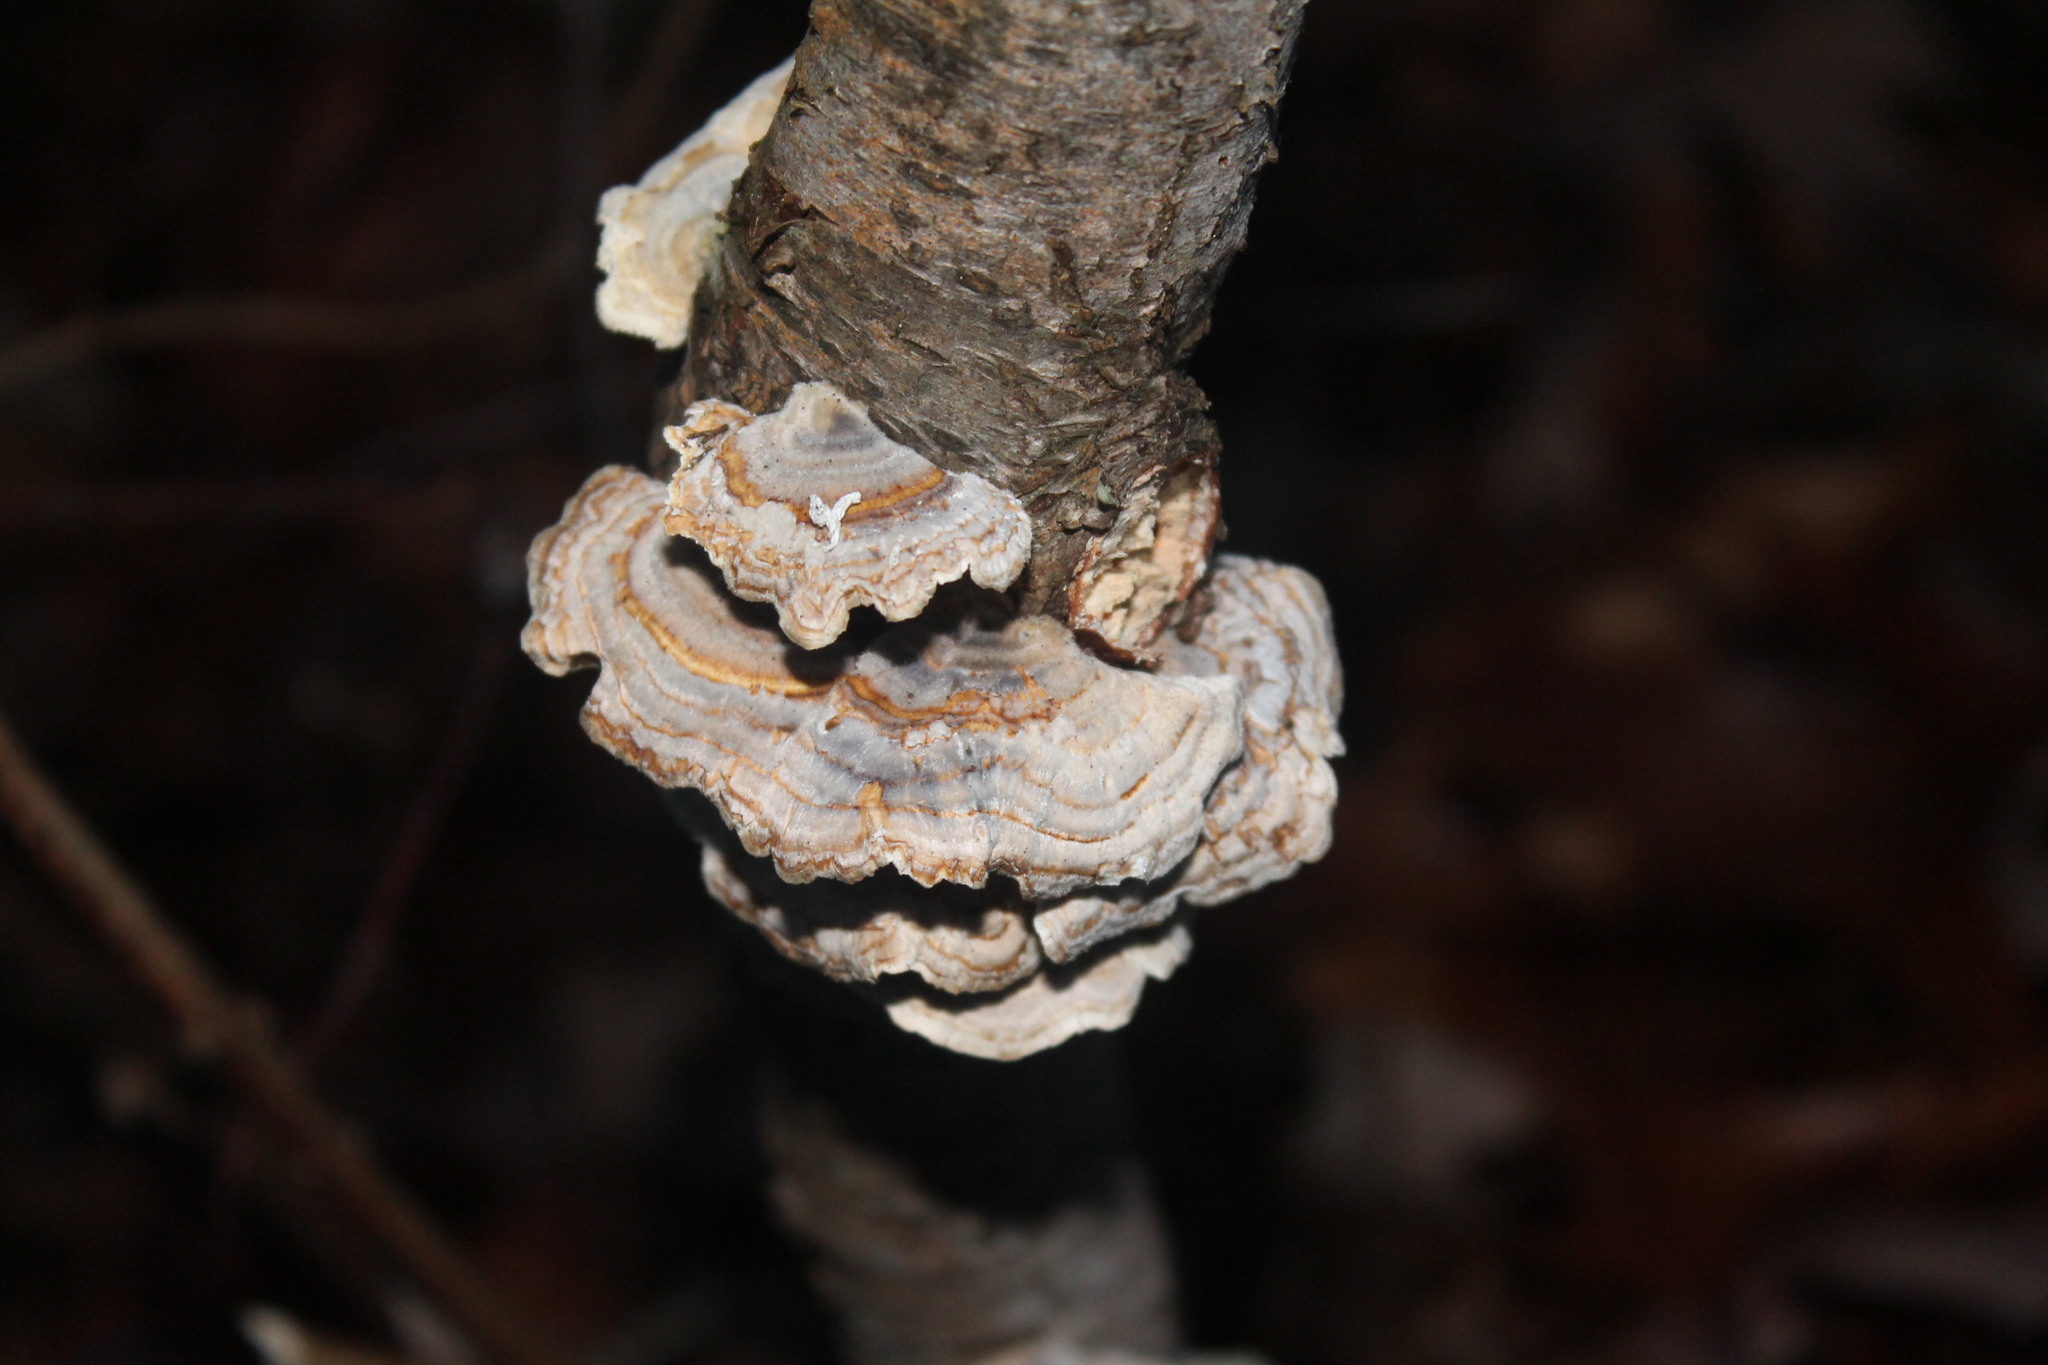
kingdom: Fungi
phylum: Basidiomycota
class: Agaricomycetes
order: Polyporales
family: Polyporaceae
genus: Trametes
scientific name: Trametes versicolor
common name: Turkeytail
